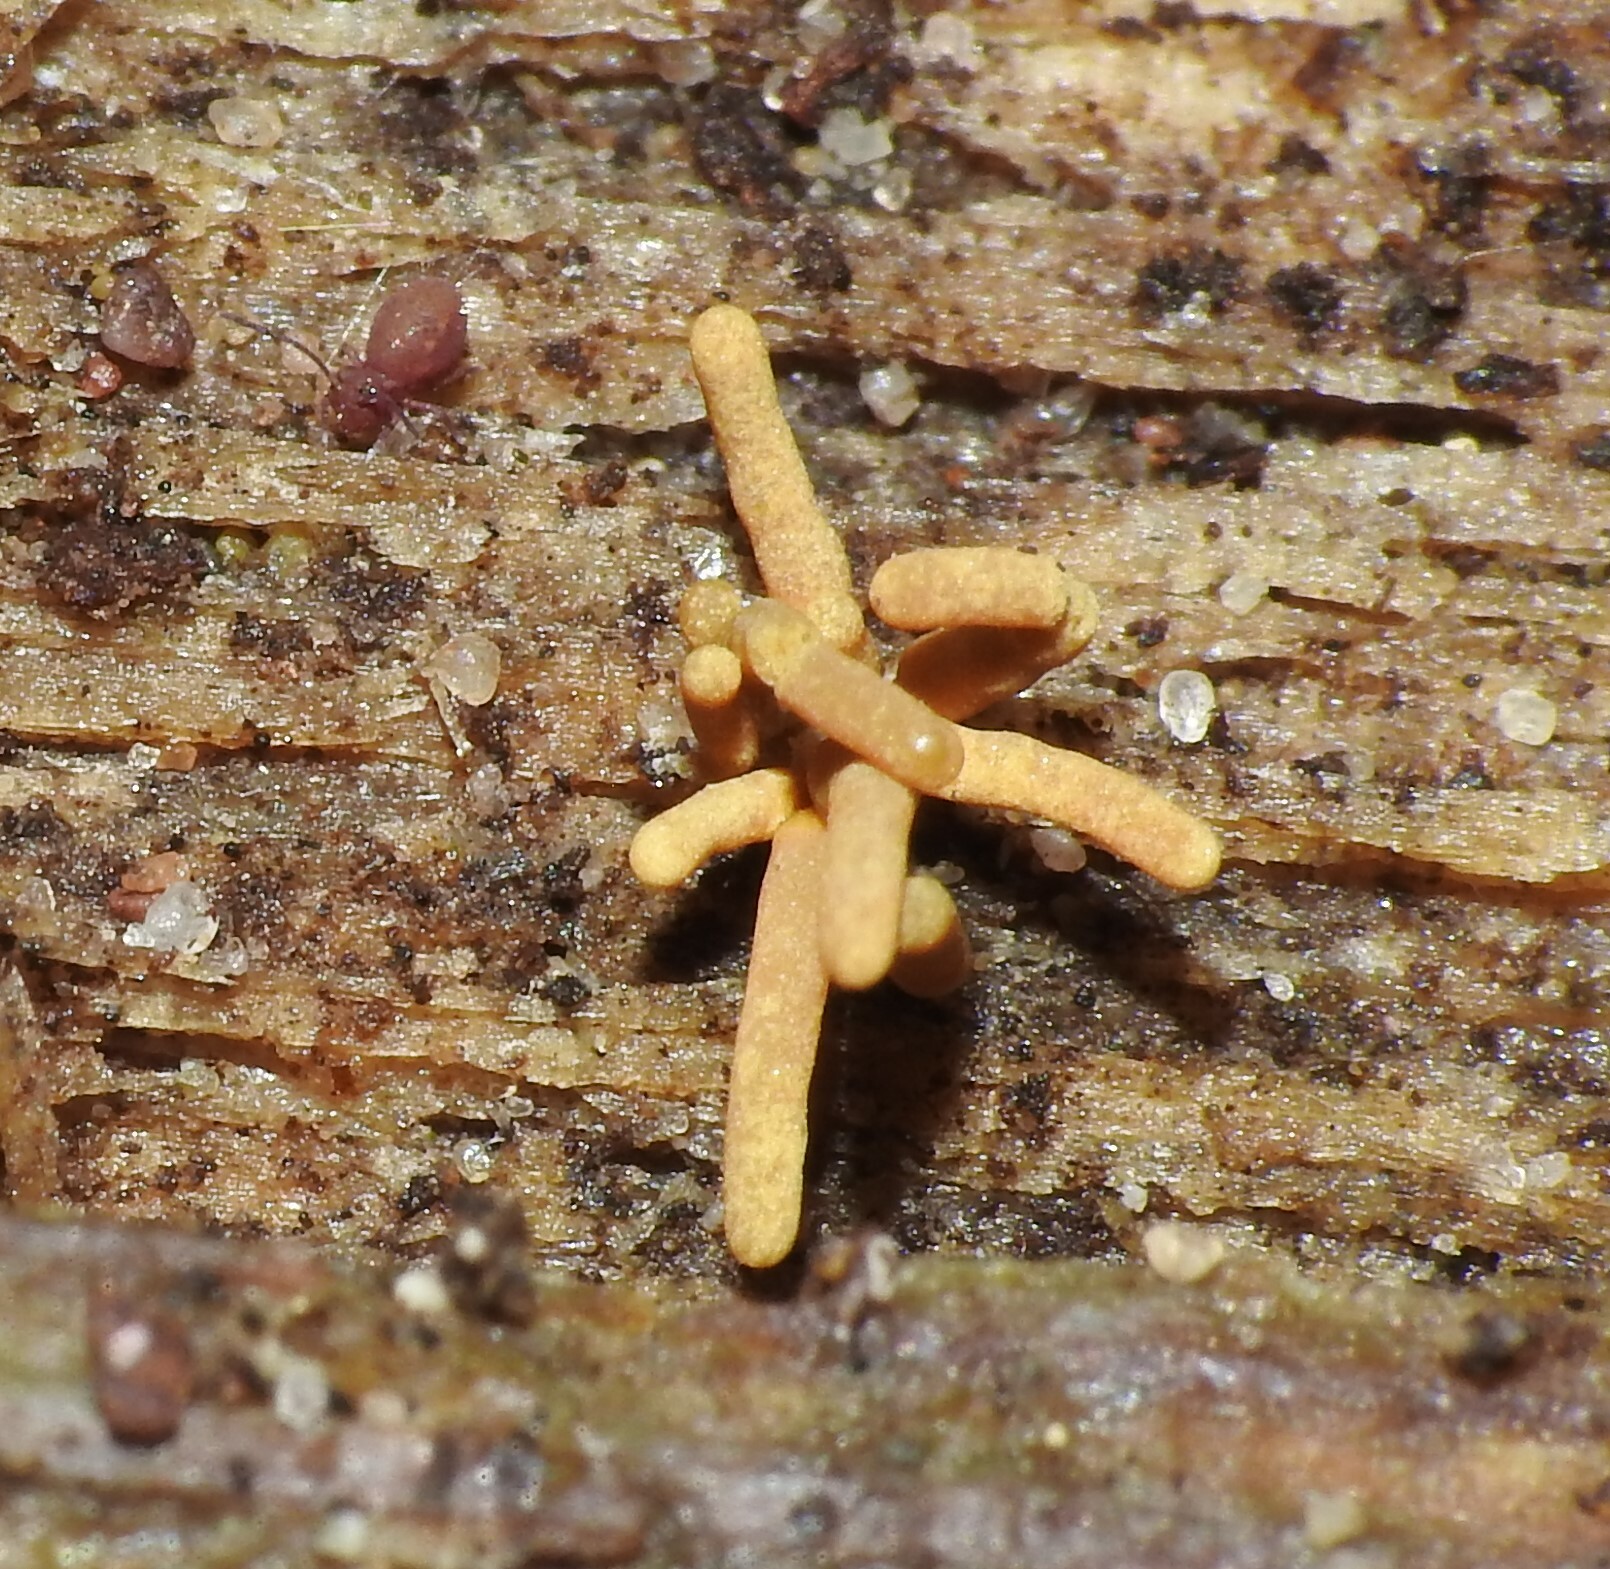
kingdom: Protozoa
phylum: Mycetozoa
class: Myxomycetes
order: Trichiales
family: Arcyriaceae
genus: Arcyria
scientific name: Arcyria obvelata
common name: Yellow carnival candy slime
